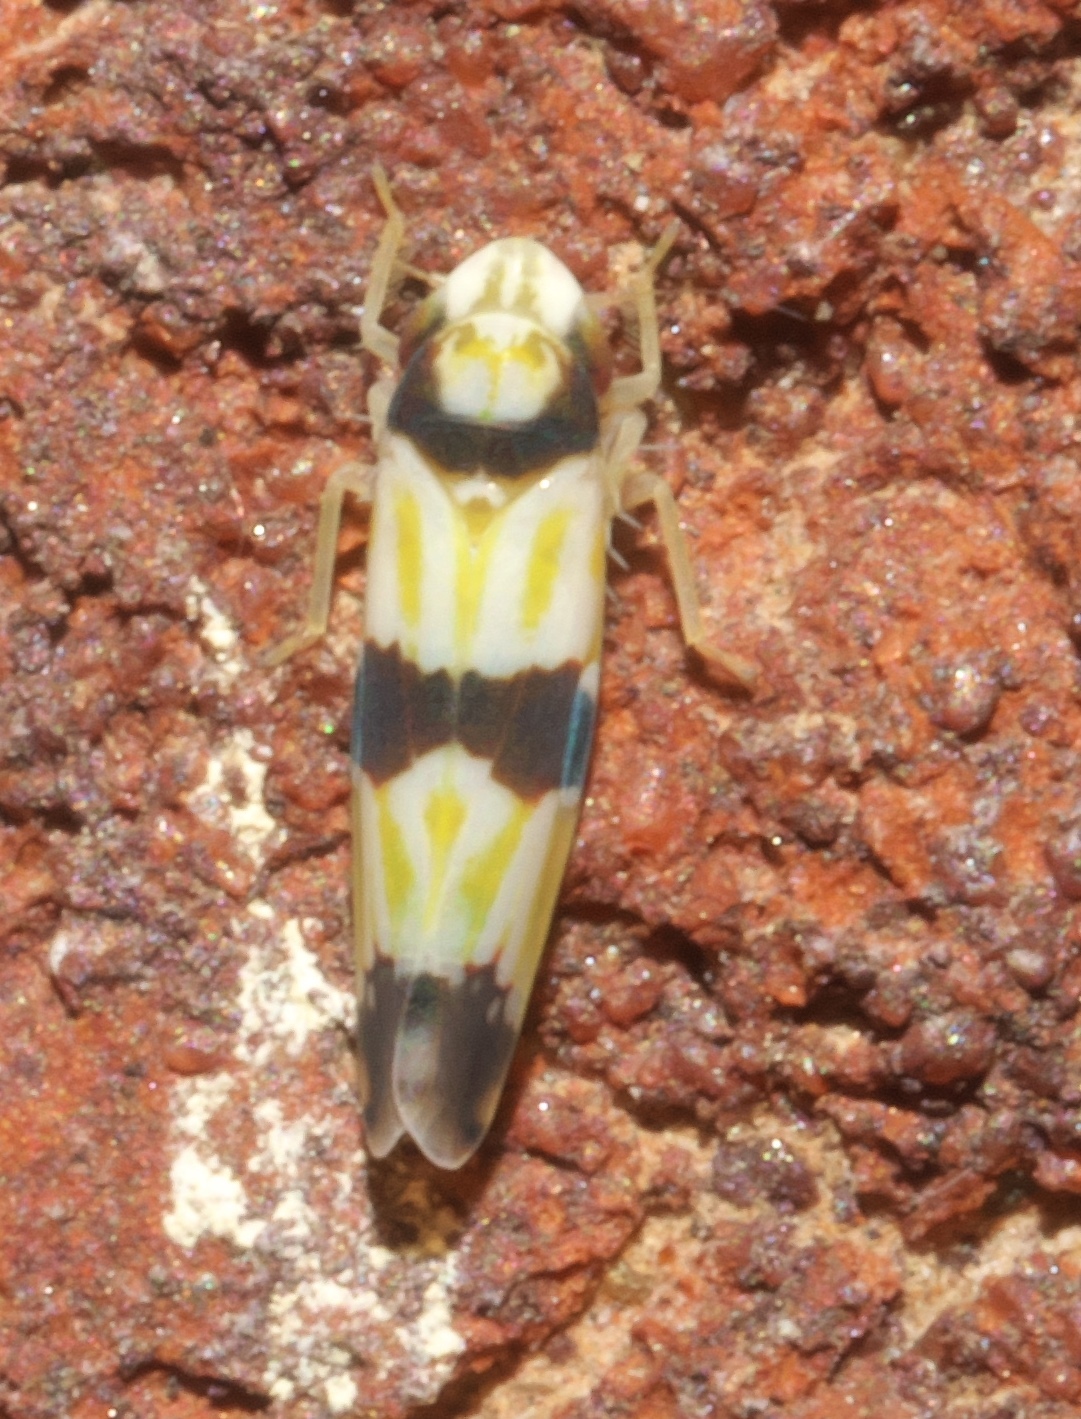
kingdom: Animalia
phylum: Arthropoda
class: Insecta
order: Hemiptera
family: Cicadellidae
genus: Erythroneura
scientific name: Erythroneura calycula
